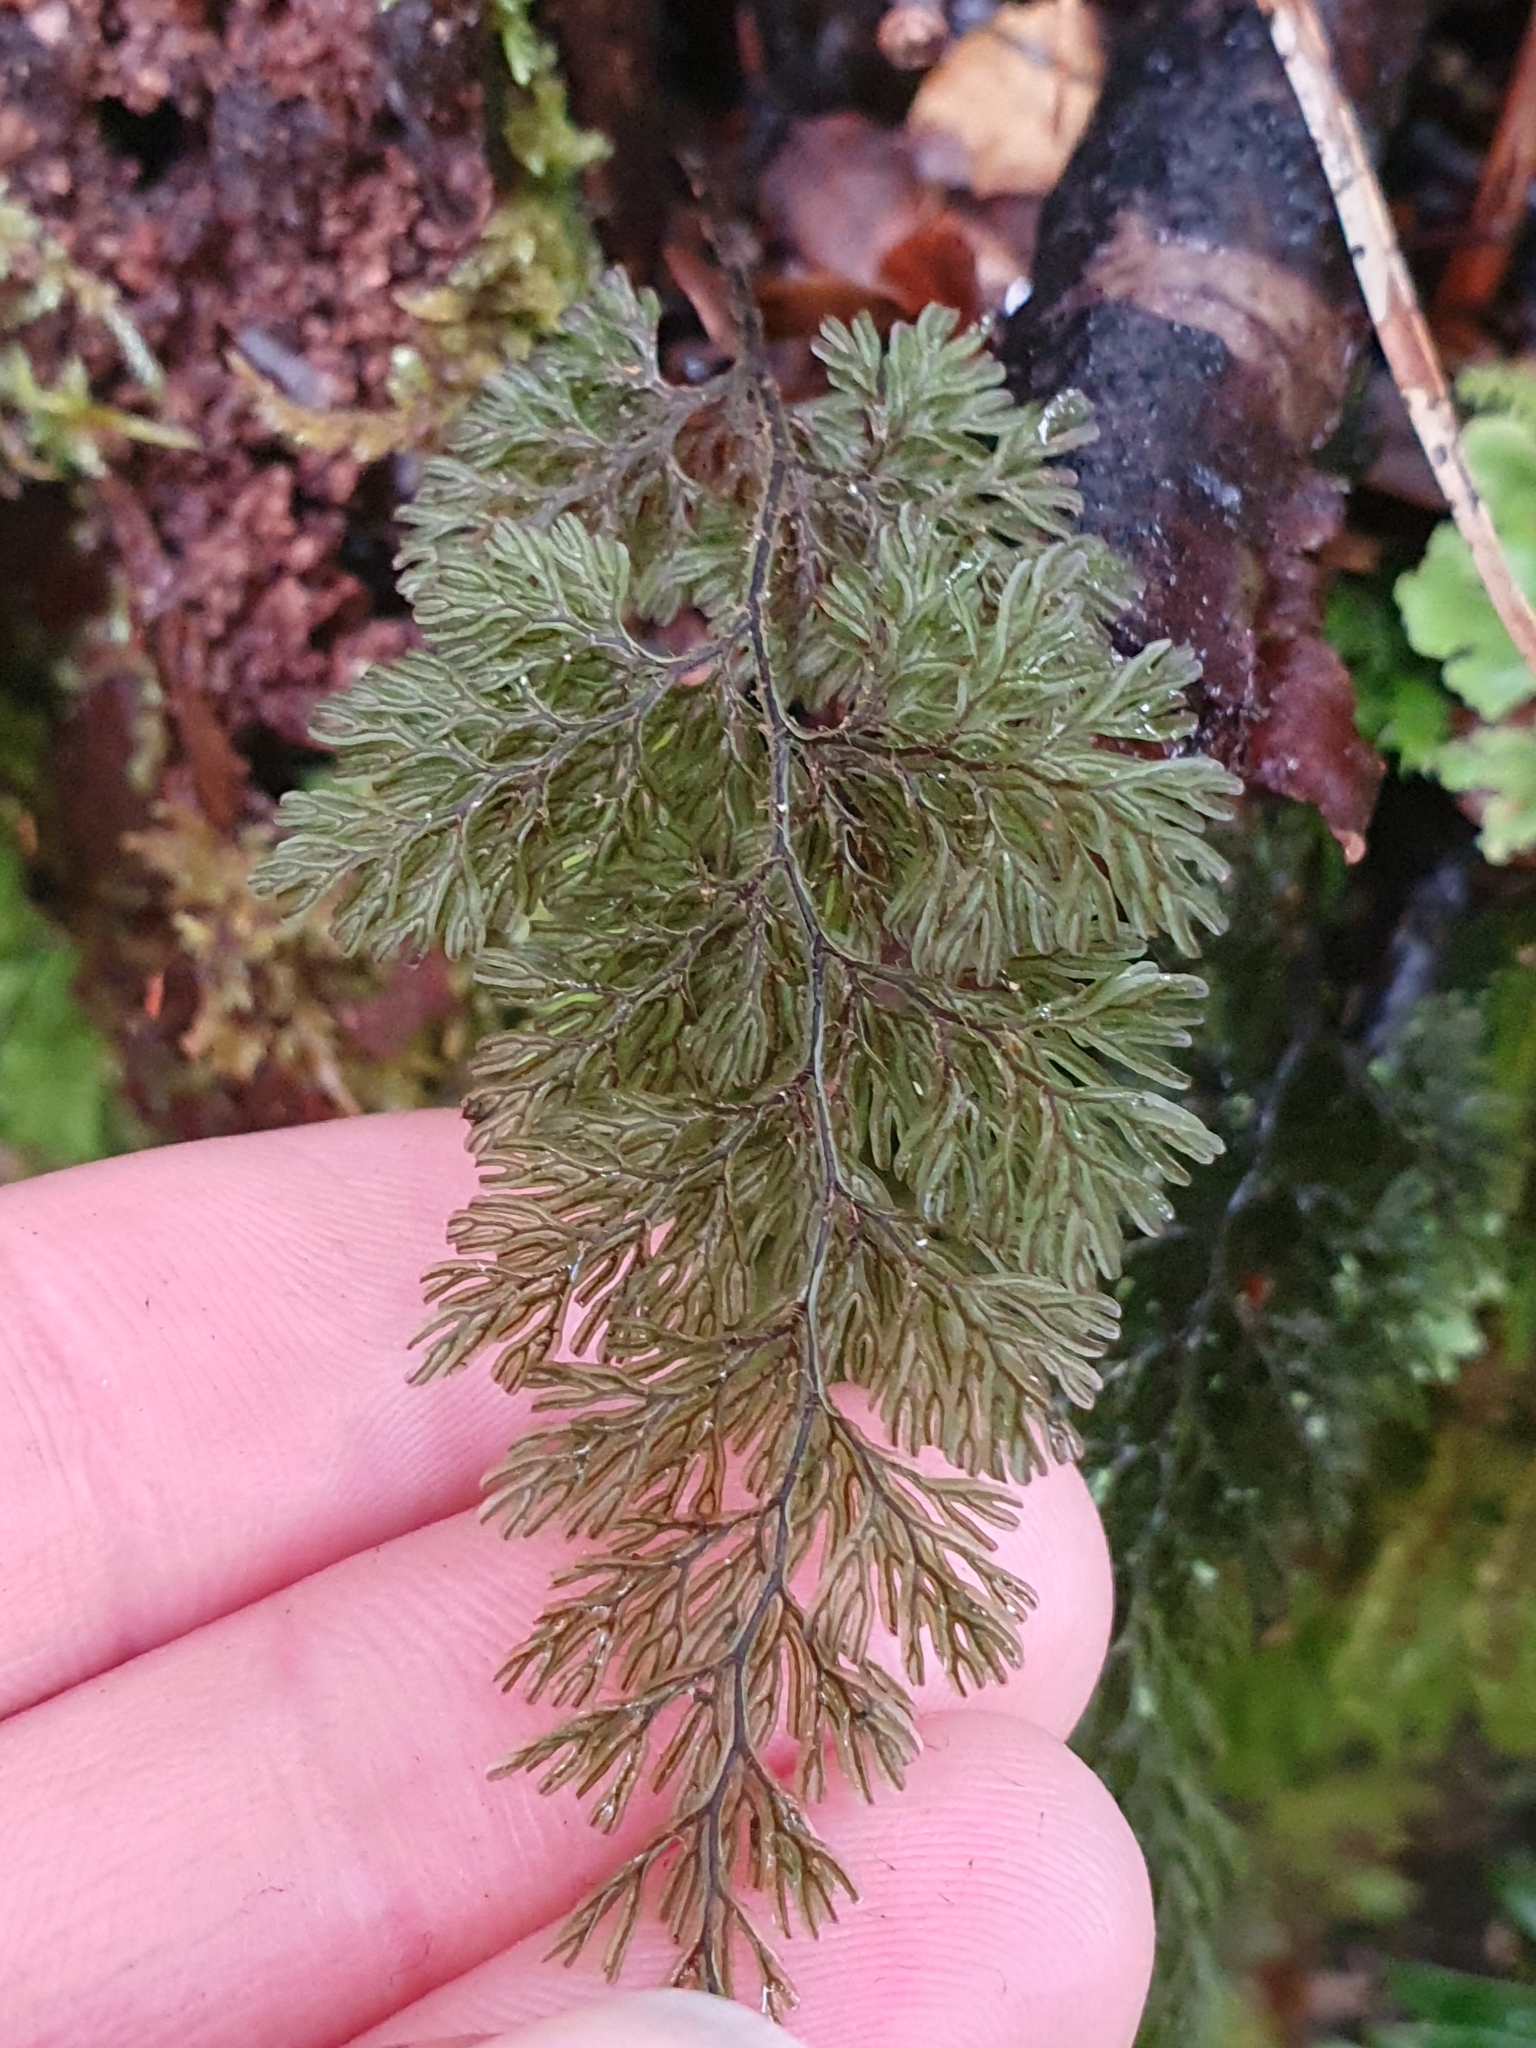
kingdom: Plantae
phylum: Tracheophyta
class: Polypodiopsida
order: Hymenophyllales
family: Hymenophyllaceae
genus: Hymenophyllum
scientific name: Hymenophyllum villosum
